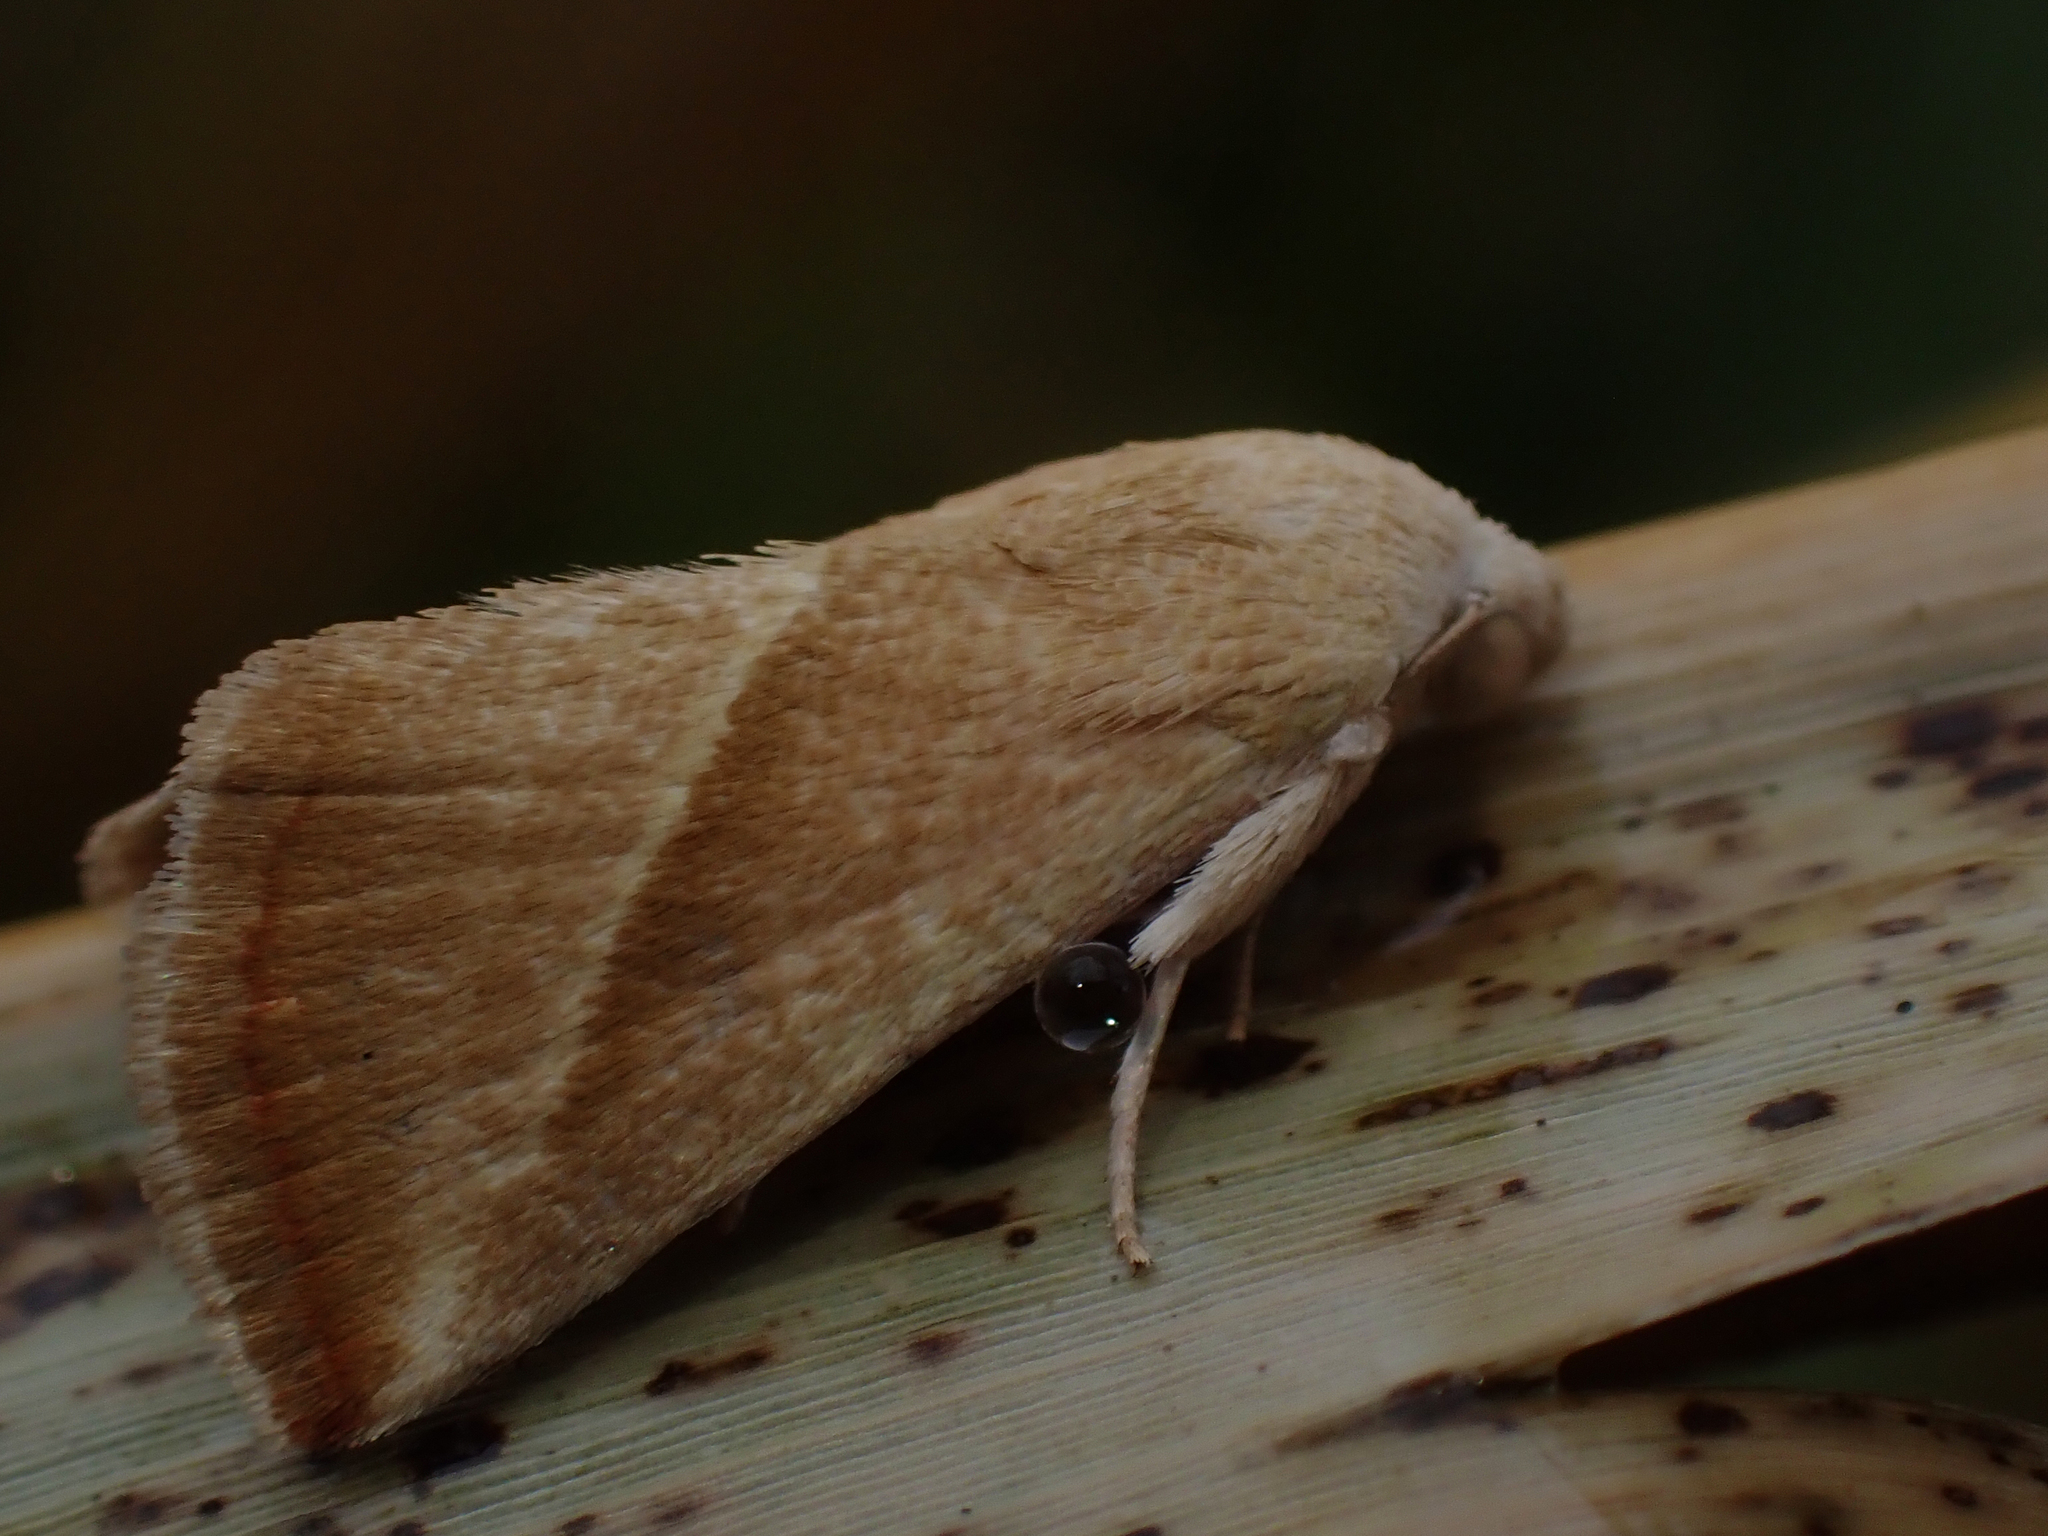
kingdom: Animalia
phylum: Arthropoda
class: Insecta
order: Lepidoptera
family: Noctuidae
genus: Eublemma
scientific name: Eublemma recta
